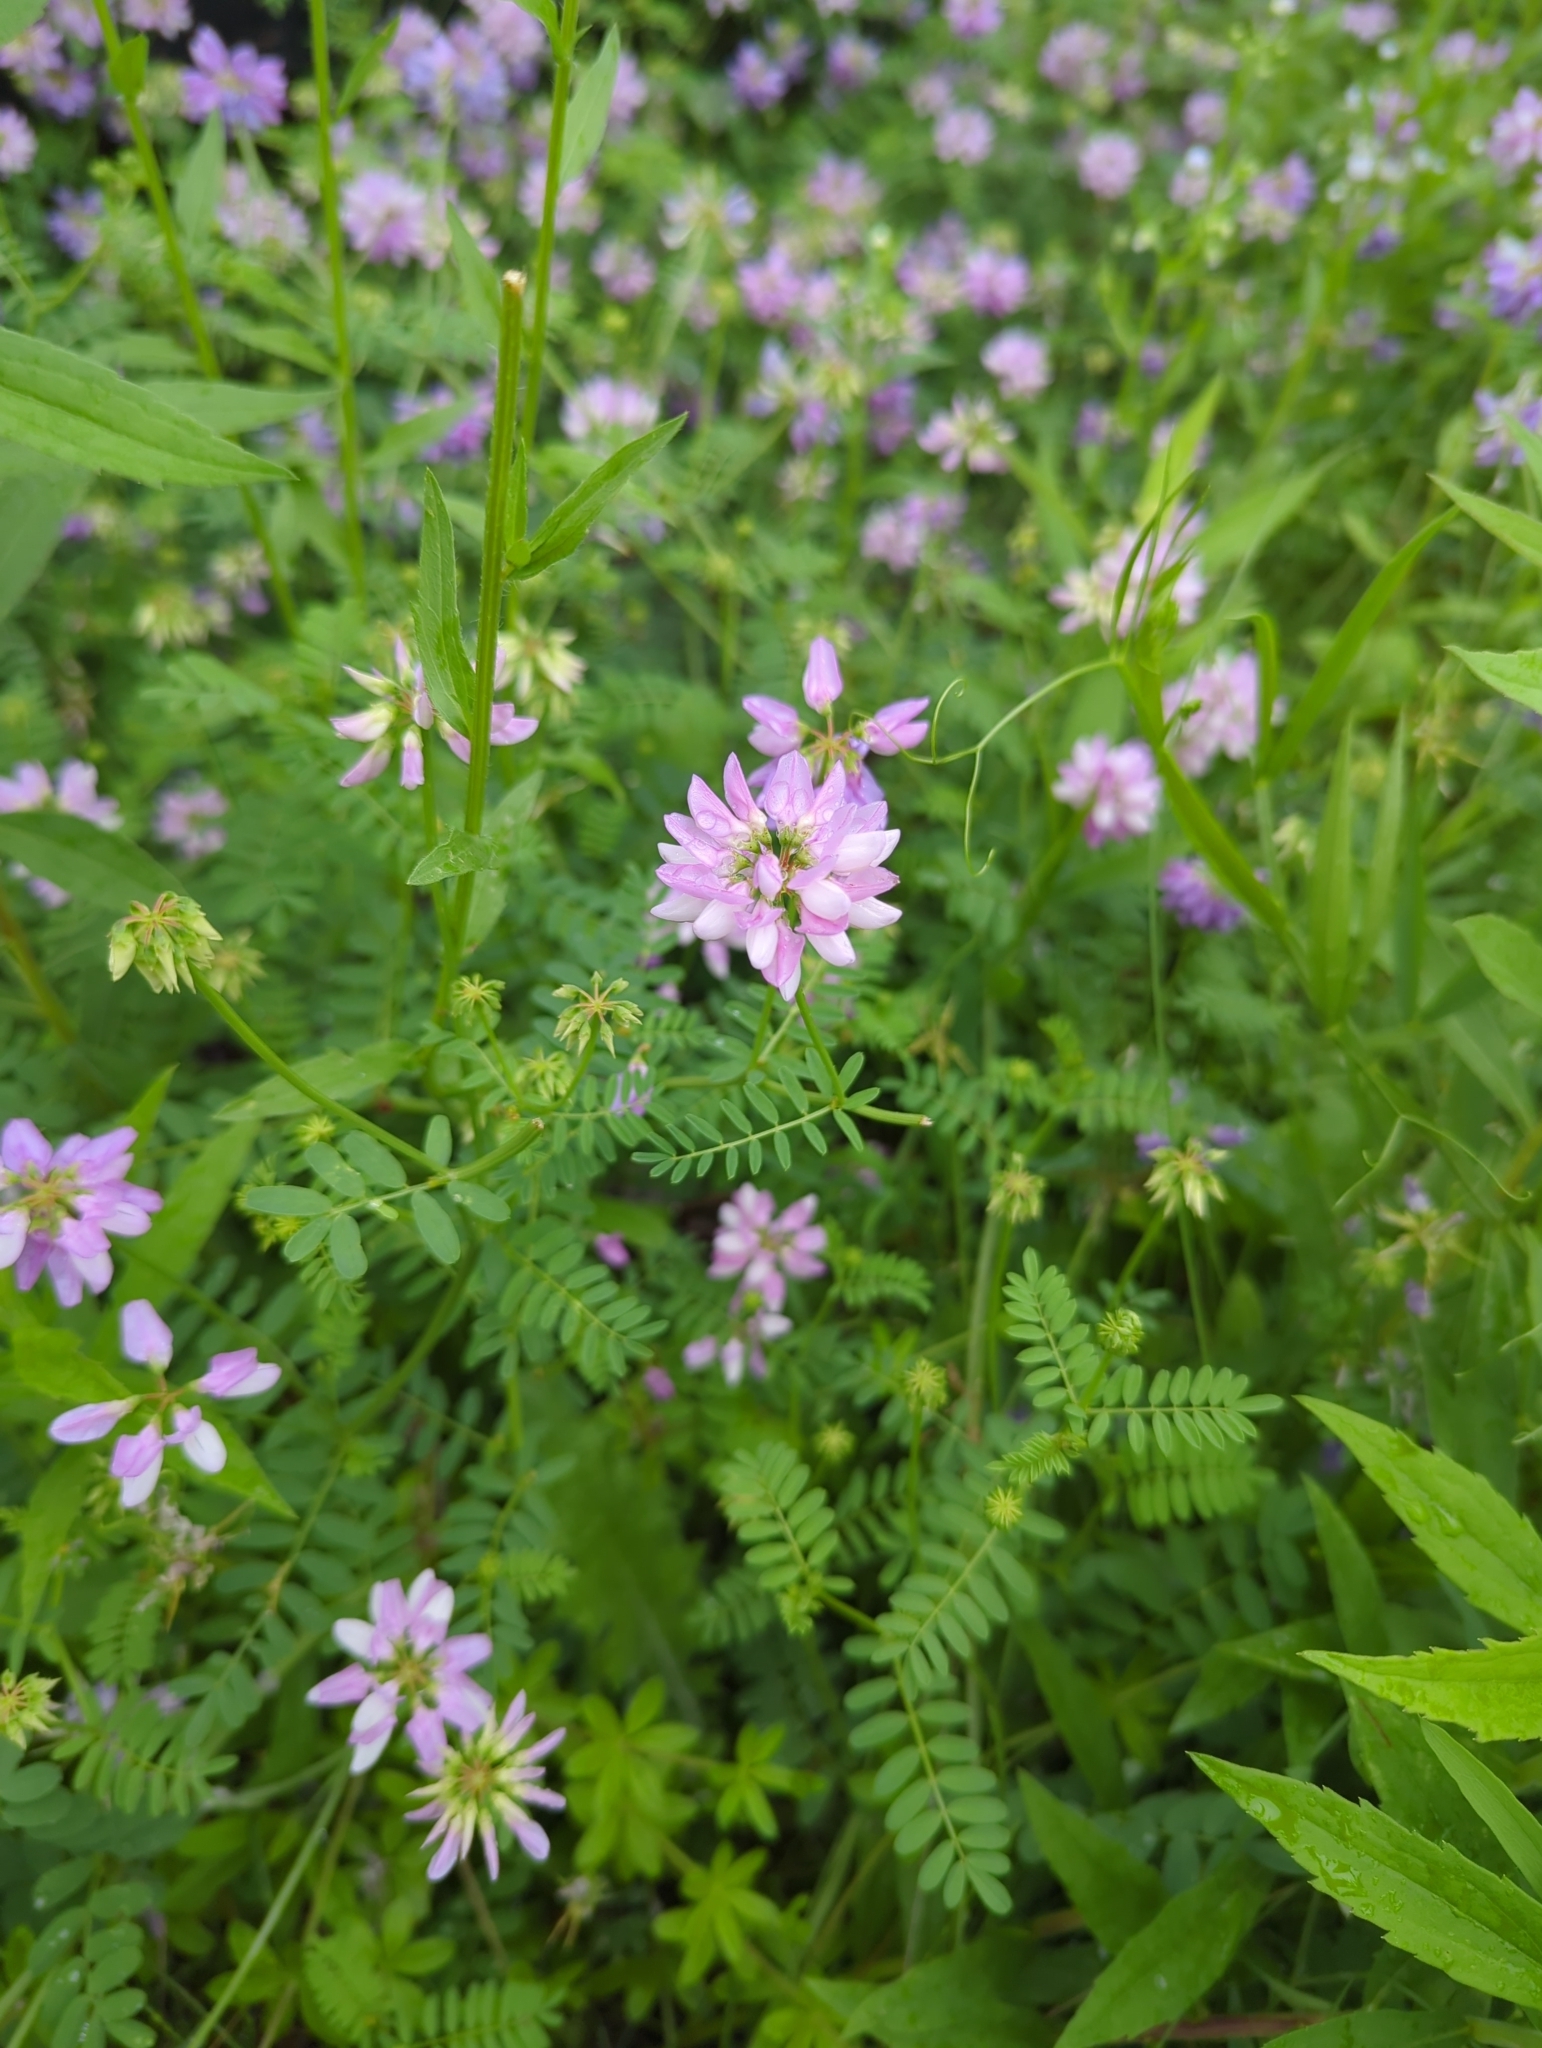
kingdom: Plantae
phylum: Tracheophyta
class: Magnoliopsida
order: Fabales
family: Fabaceae
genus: Coronilla
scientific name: Coronilla varia
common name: Crownvetch
